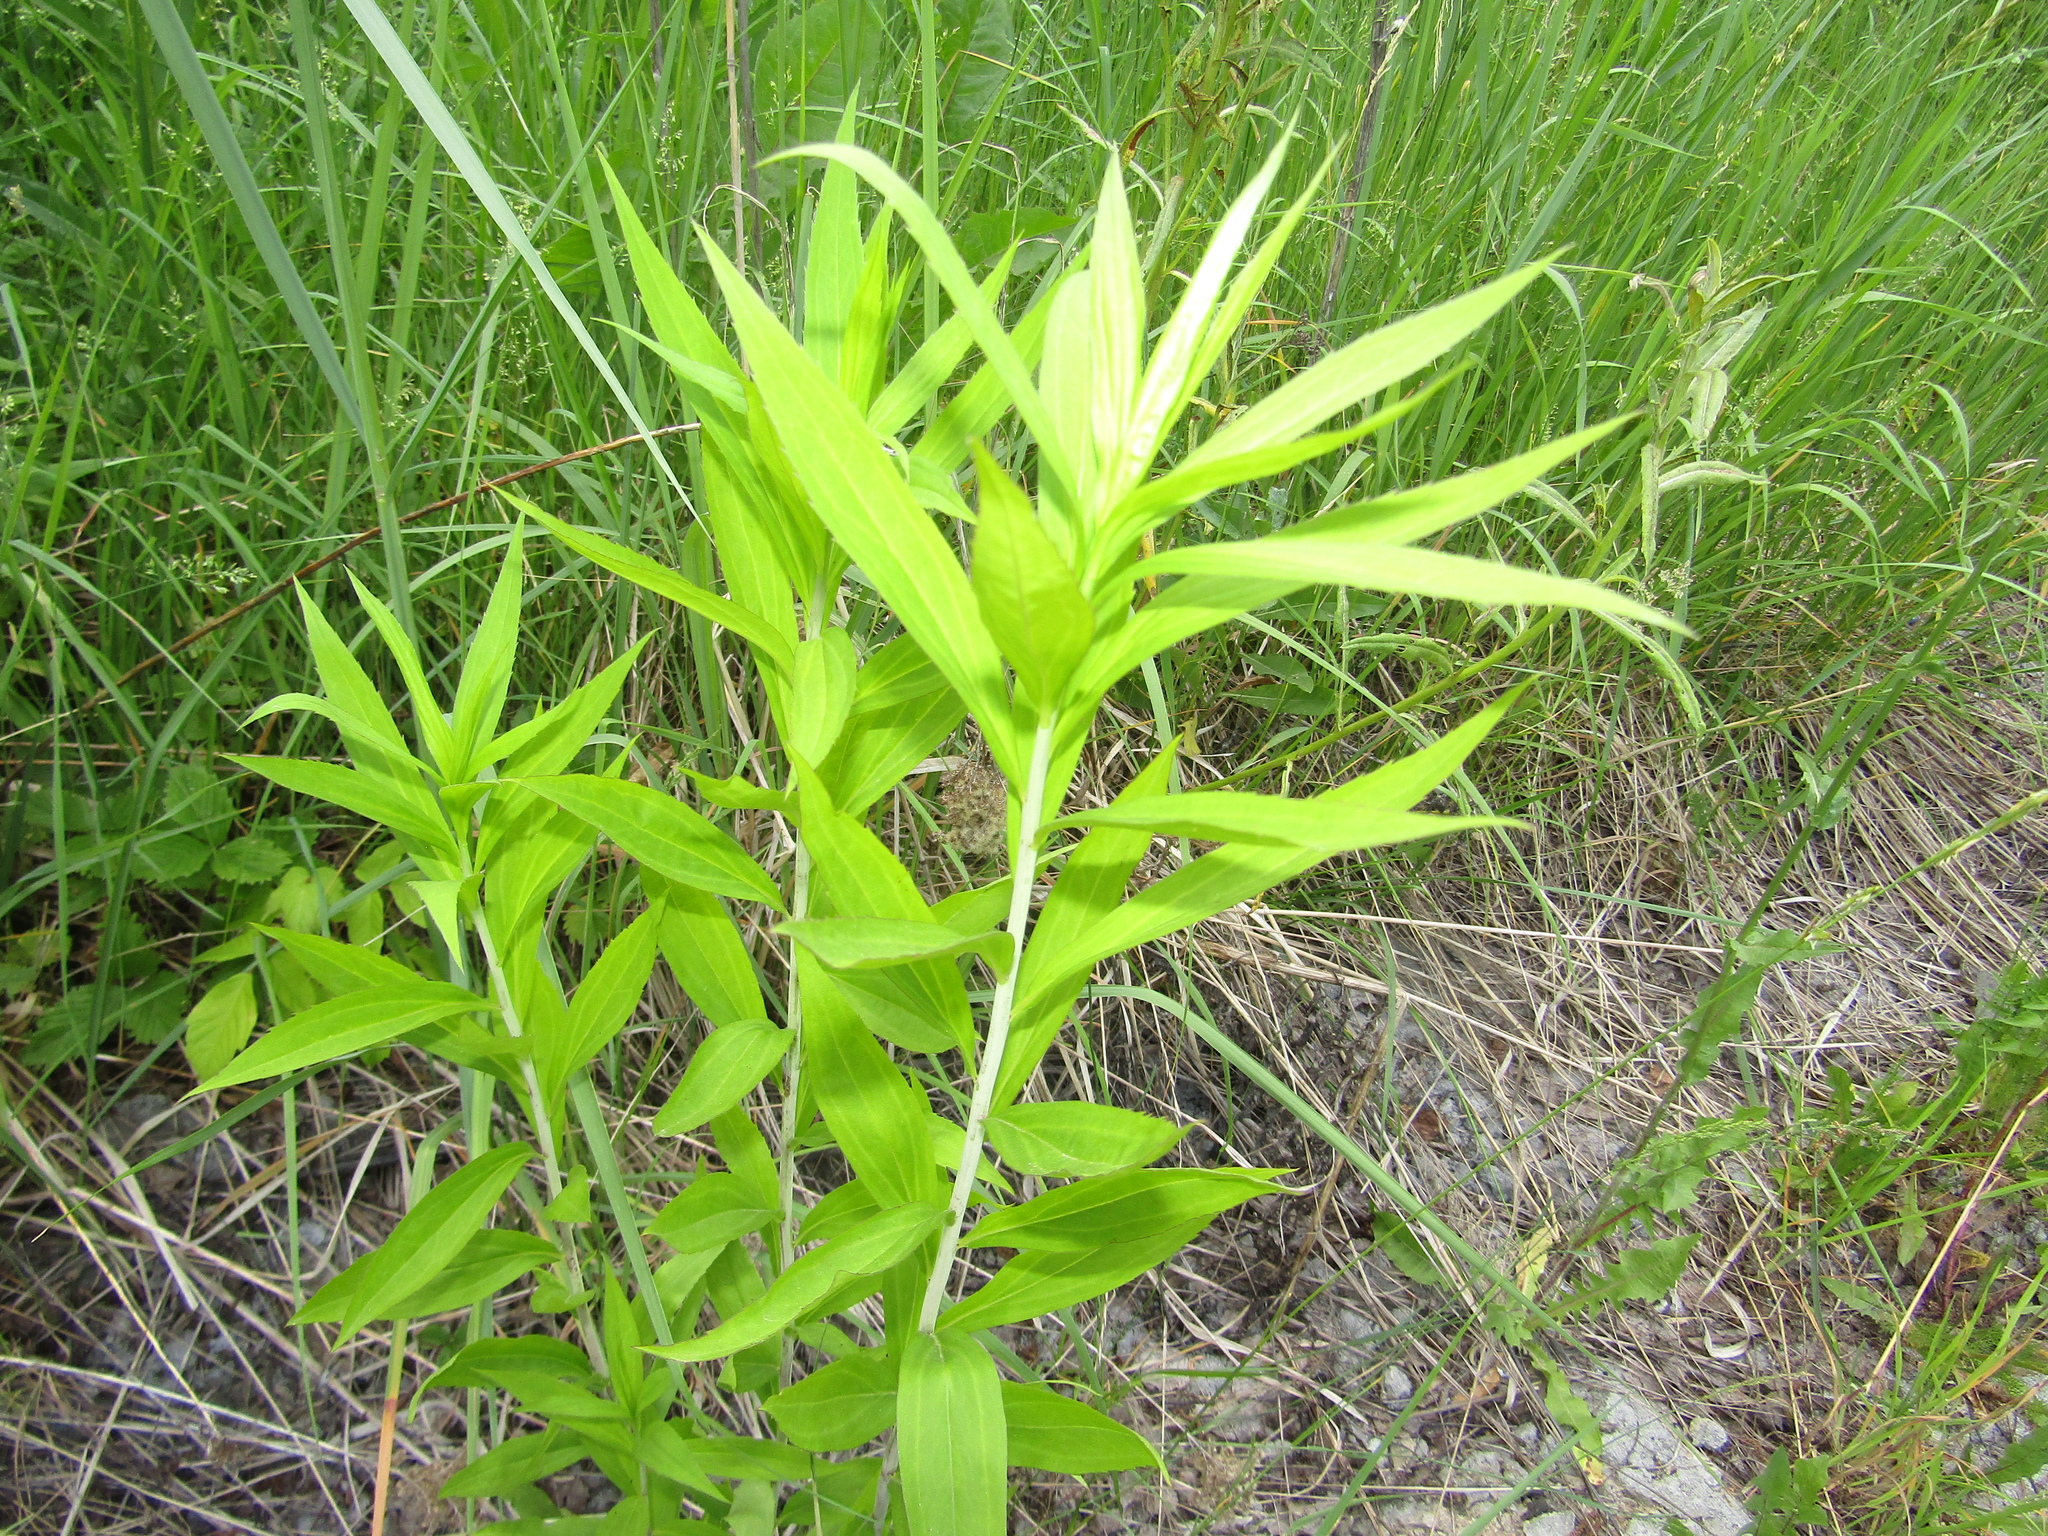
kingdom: Plantae
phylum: Tracheophyta
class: Magnoliopsida
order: Asterales
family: Asteraceae
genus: Solidago
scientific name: Solidago gigantea
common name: Giant goldenrod
